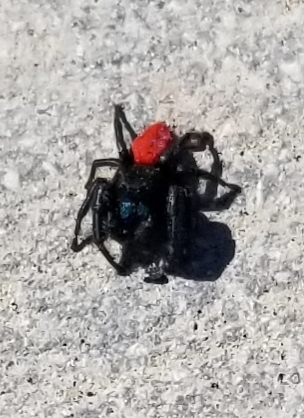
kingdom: Animalia
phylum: Arthropoda
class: Arachnida
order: Araneae
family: Salticidae
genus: Phidippus
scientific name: Phidippus johnsoni
